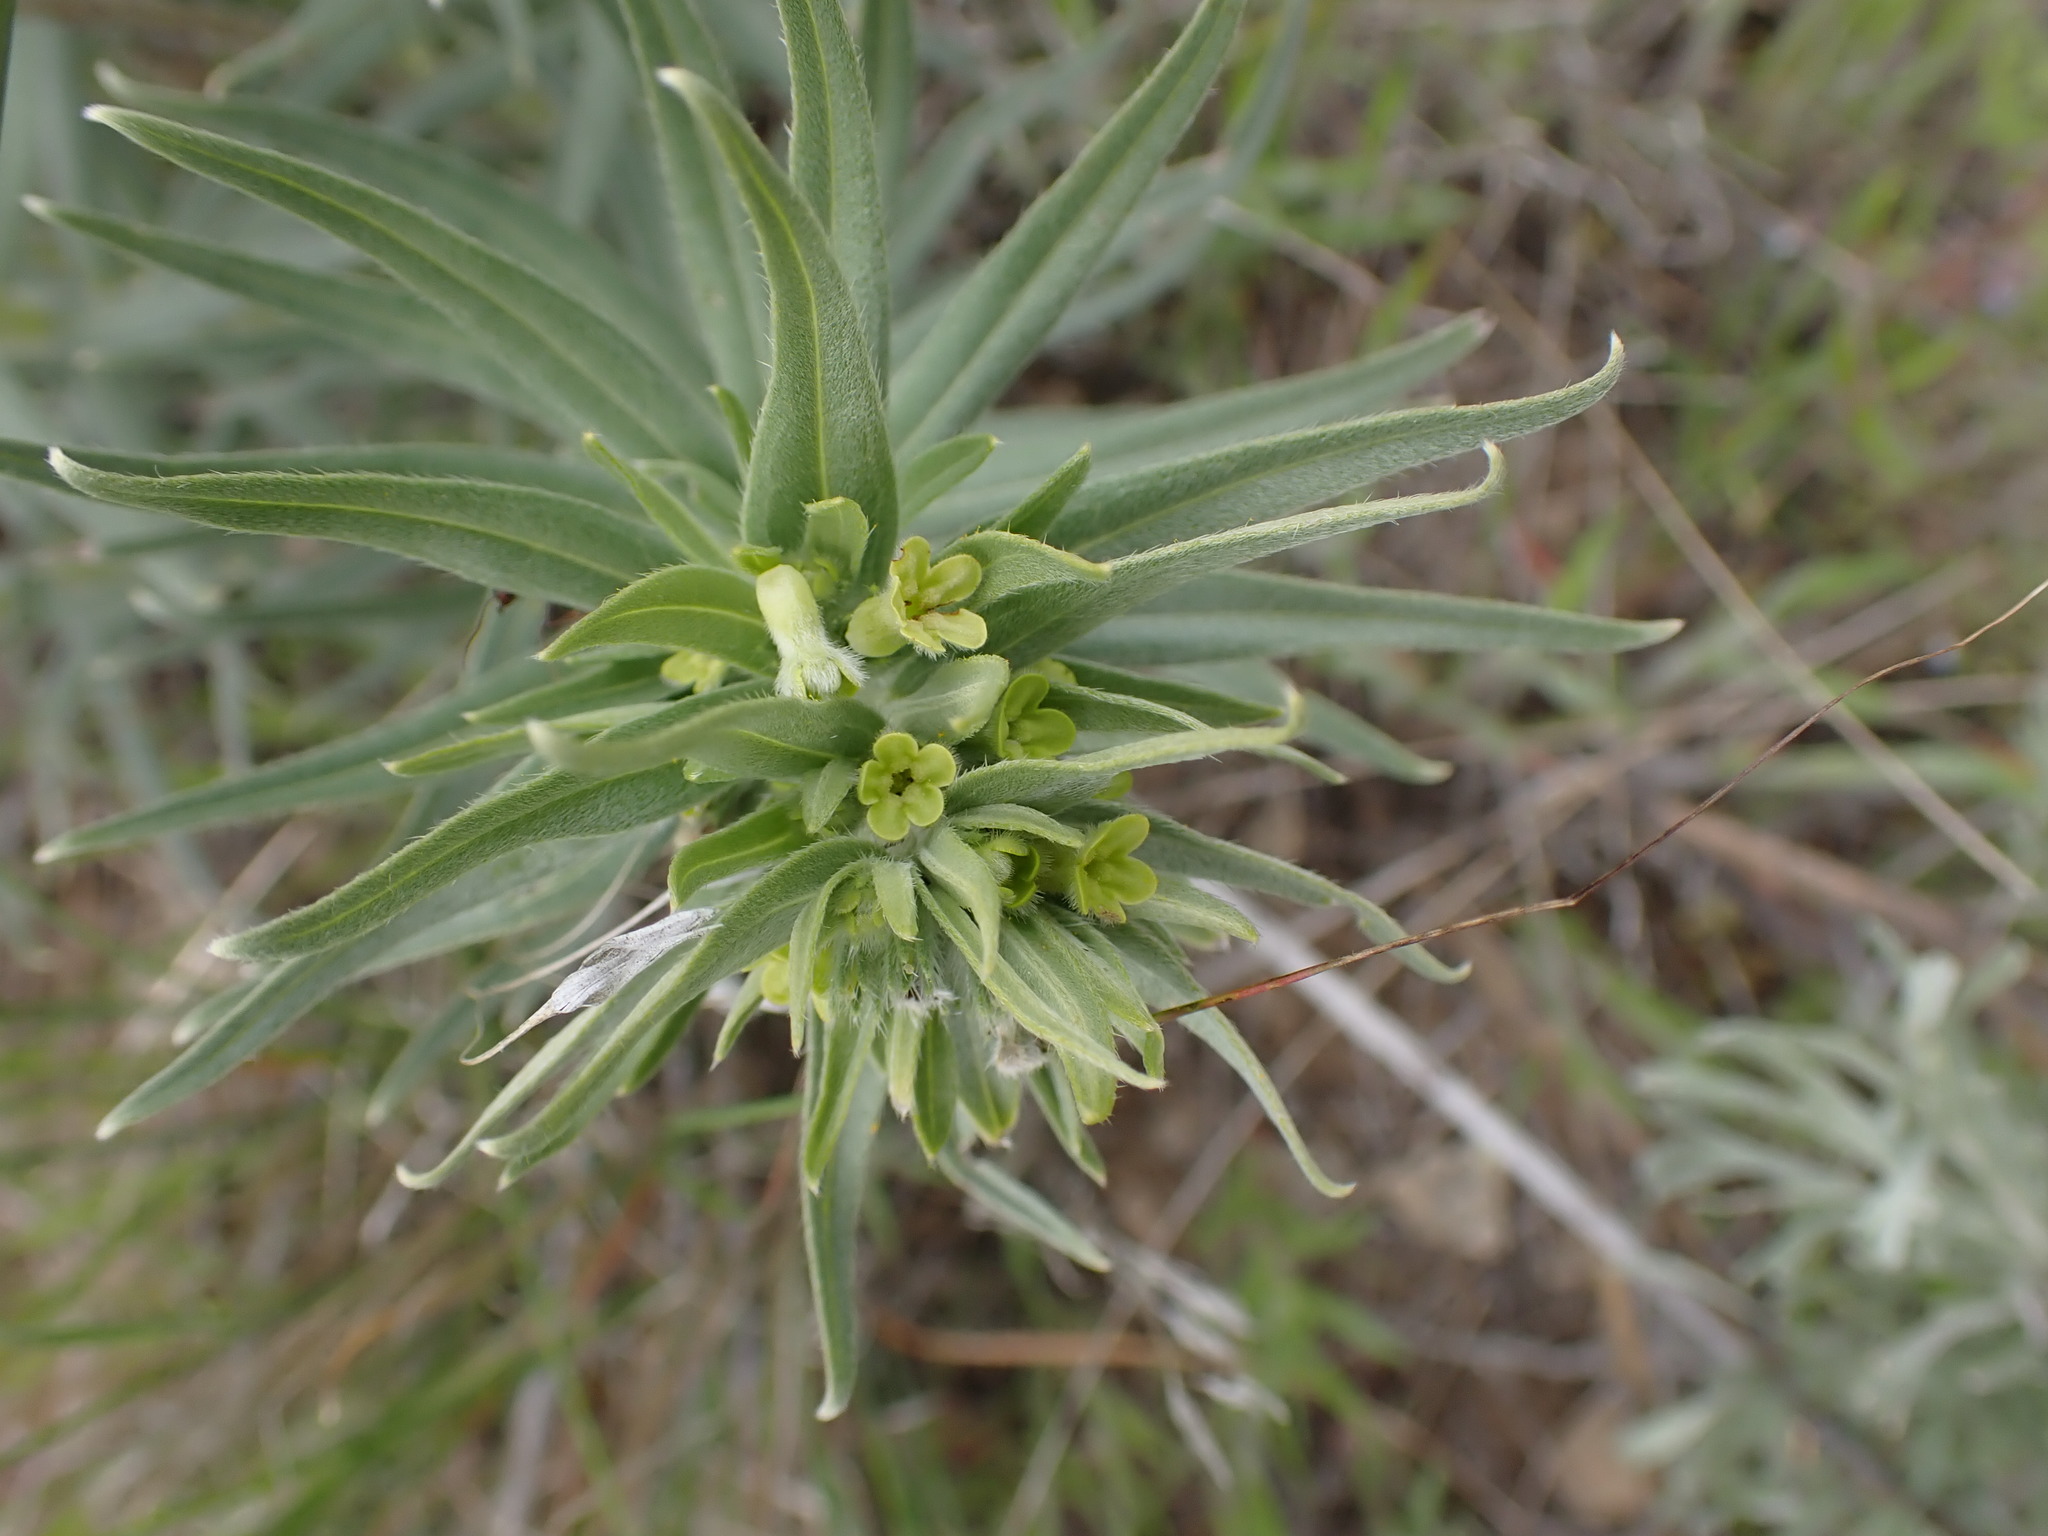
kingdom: Plantae
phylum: Tracheophyta
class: Magnoliopsida
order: Boraginales
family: Boraginaceae
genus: Lithospermum
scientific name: Lithospermum ruderale
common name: Western gromwell
